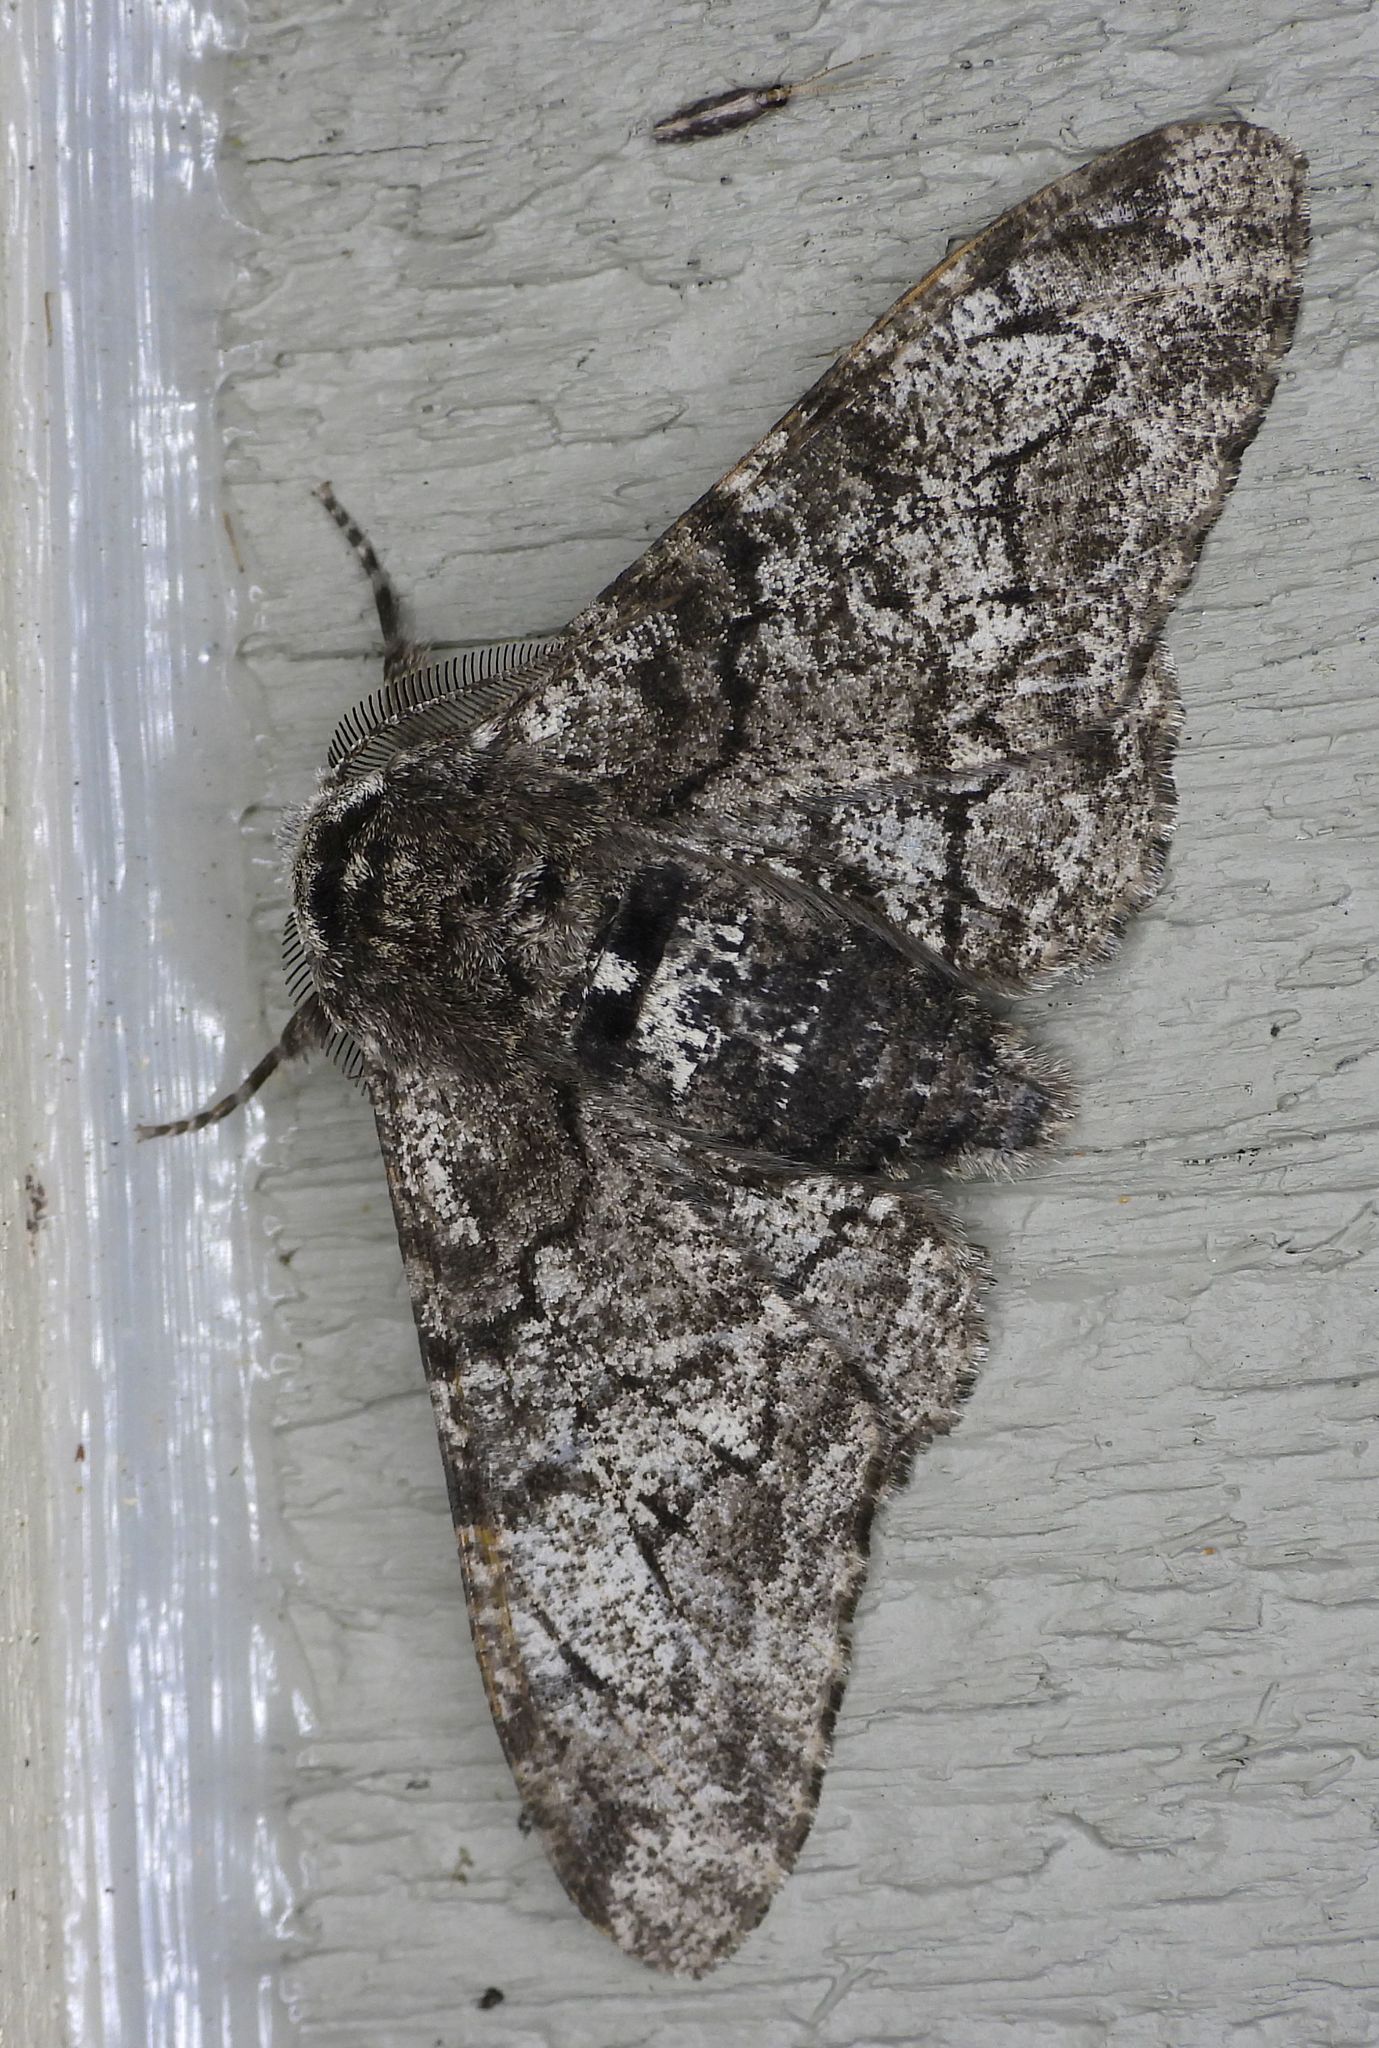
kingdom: Animalia
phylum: Arthropoda
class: Insecta
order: Lepidoptera
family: Geometridae
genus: Biston
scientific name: Biston betularia
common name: Peppered moth
